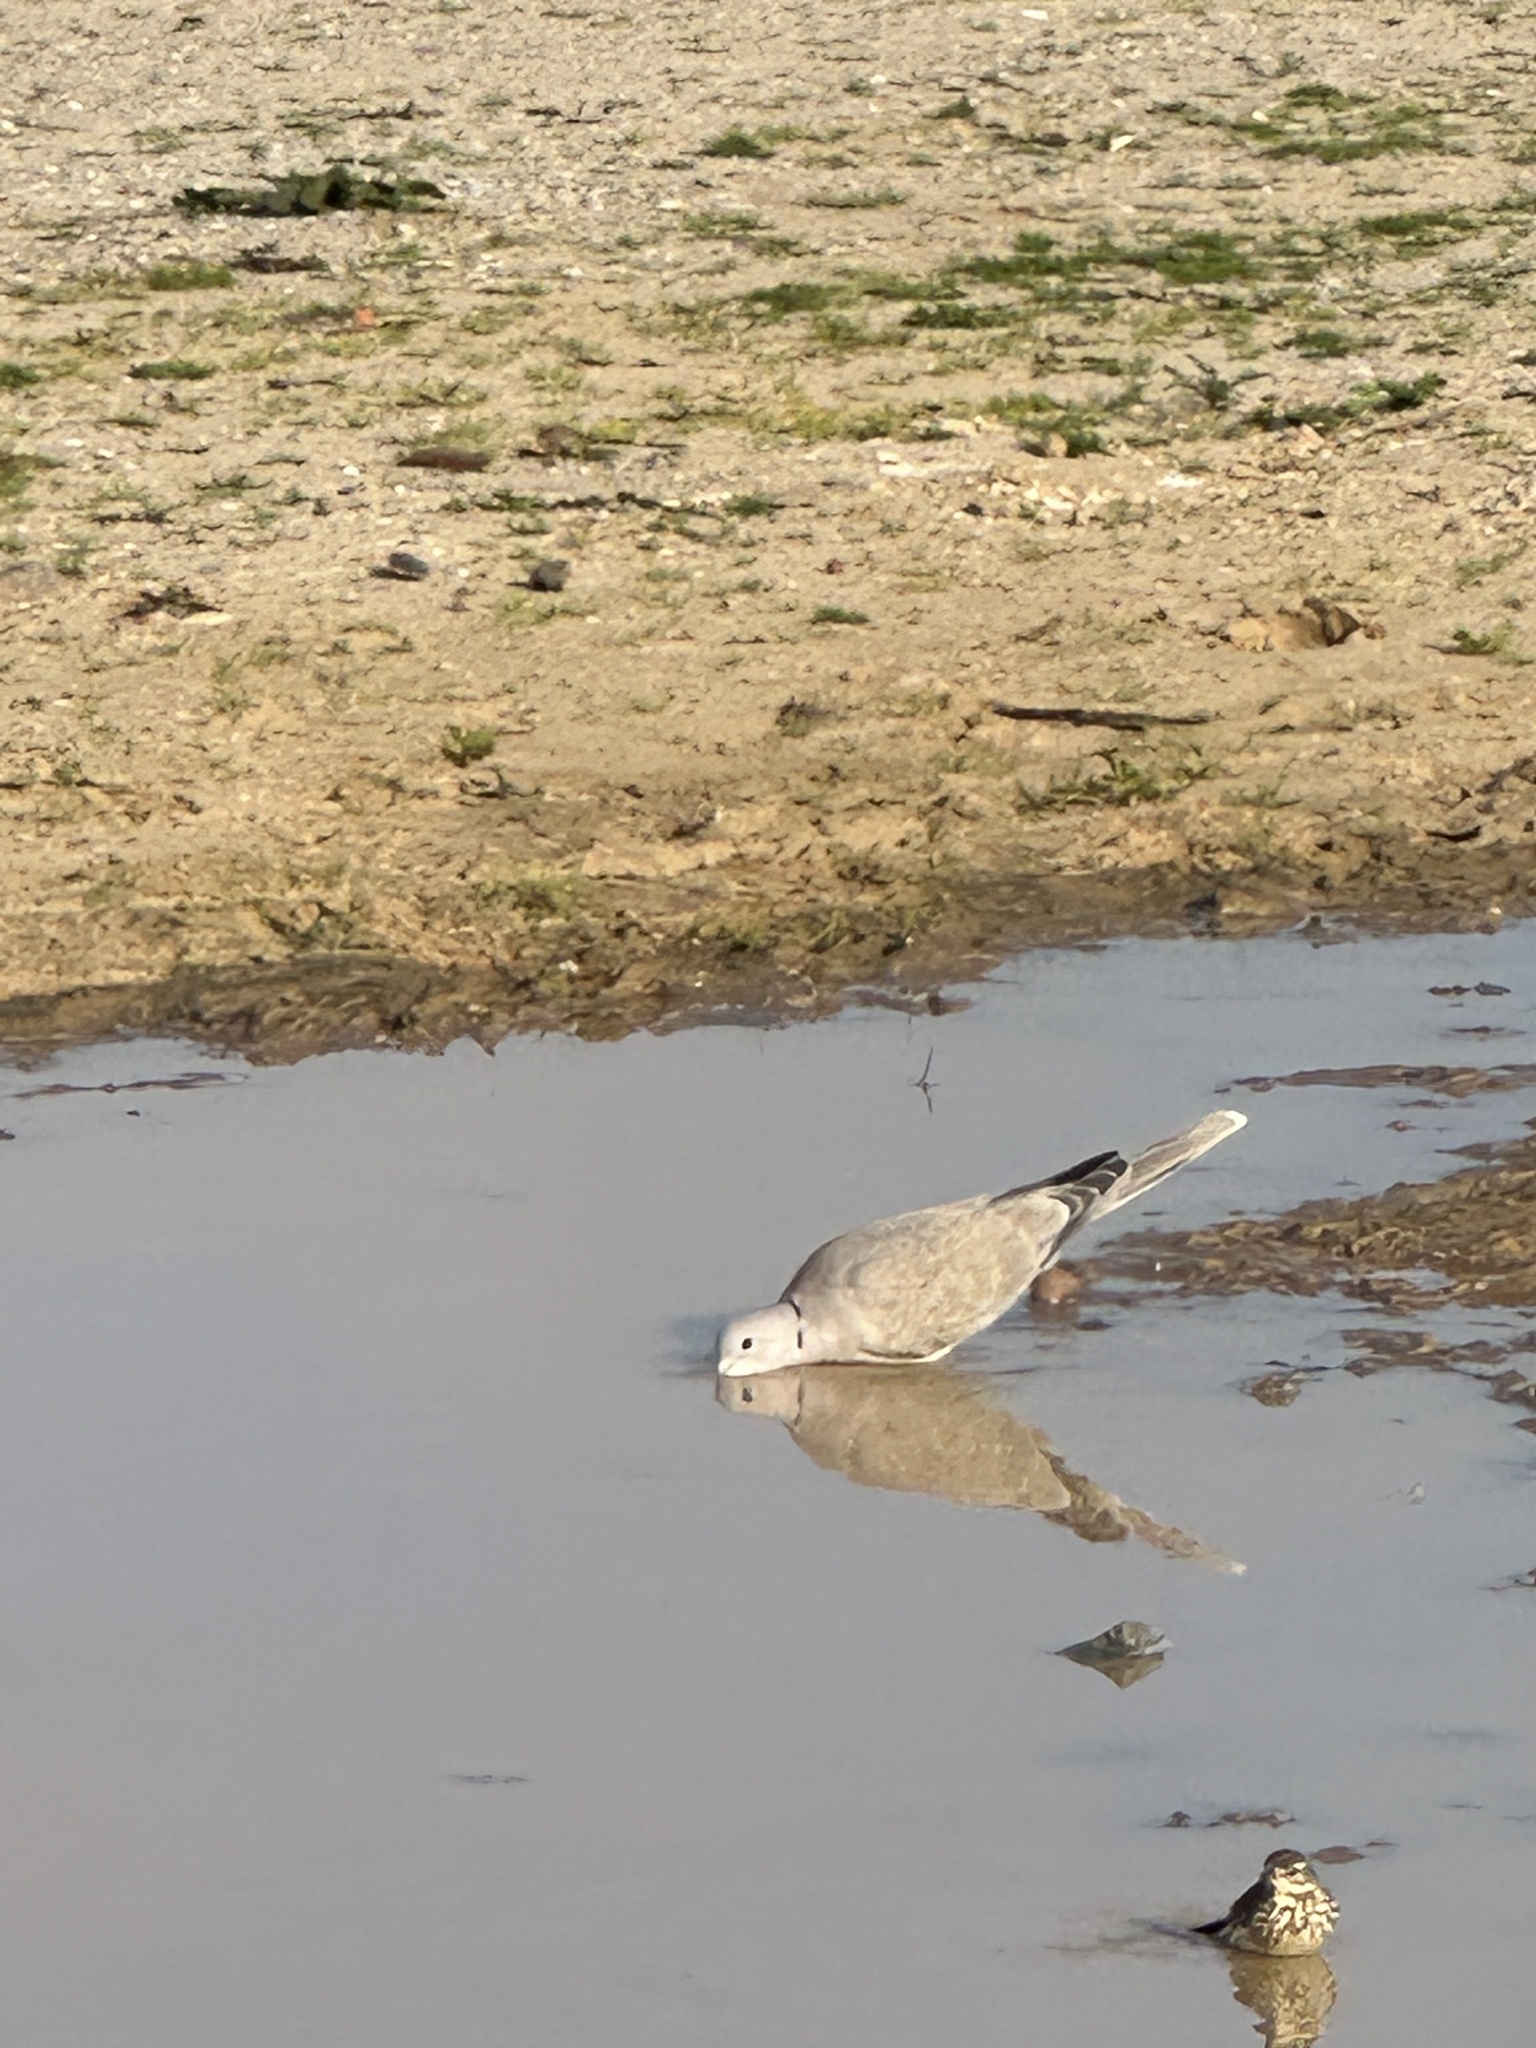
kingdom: Animalia
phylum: Chordata
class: Aves
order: Columbiformes
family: Columbidae
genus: Streptopelia
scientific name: Streptopelia decaocto
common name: Eurasian collared dove
